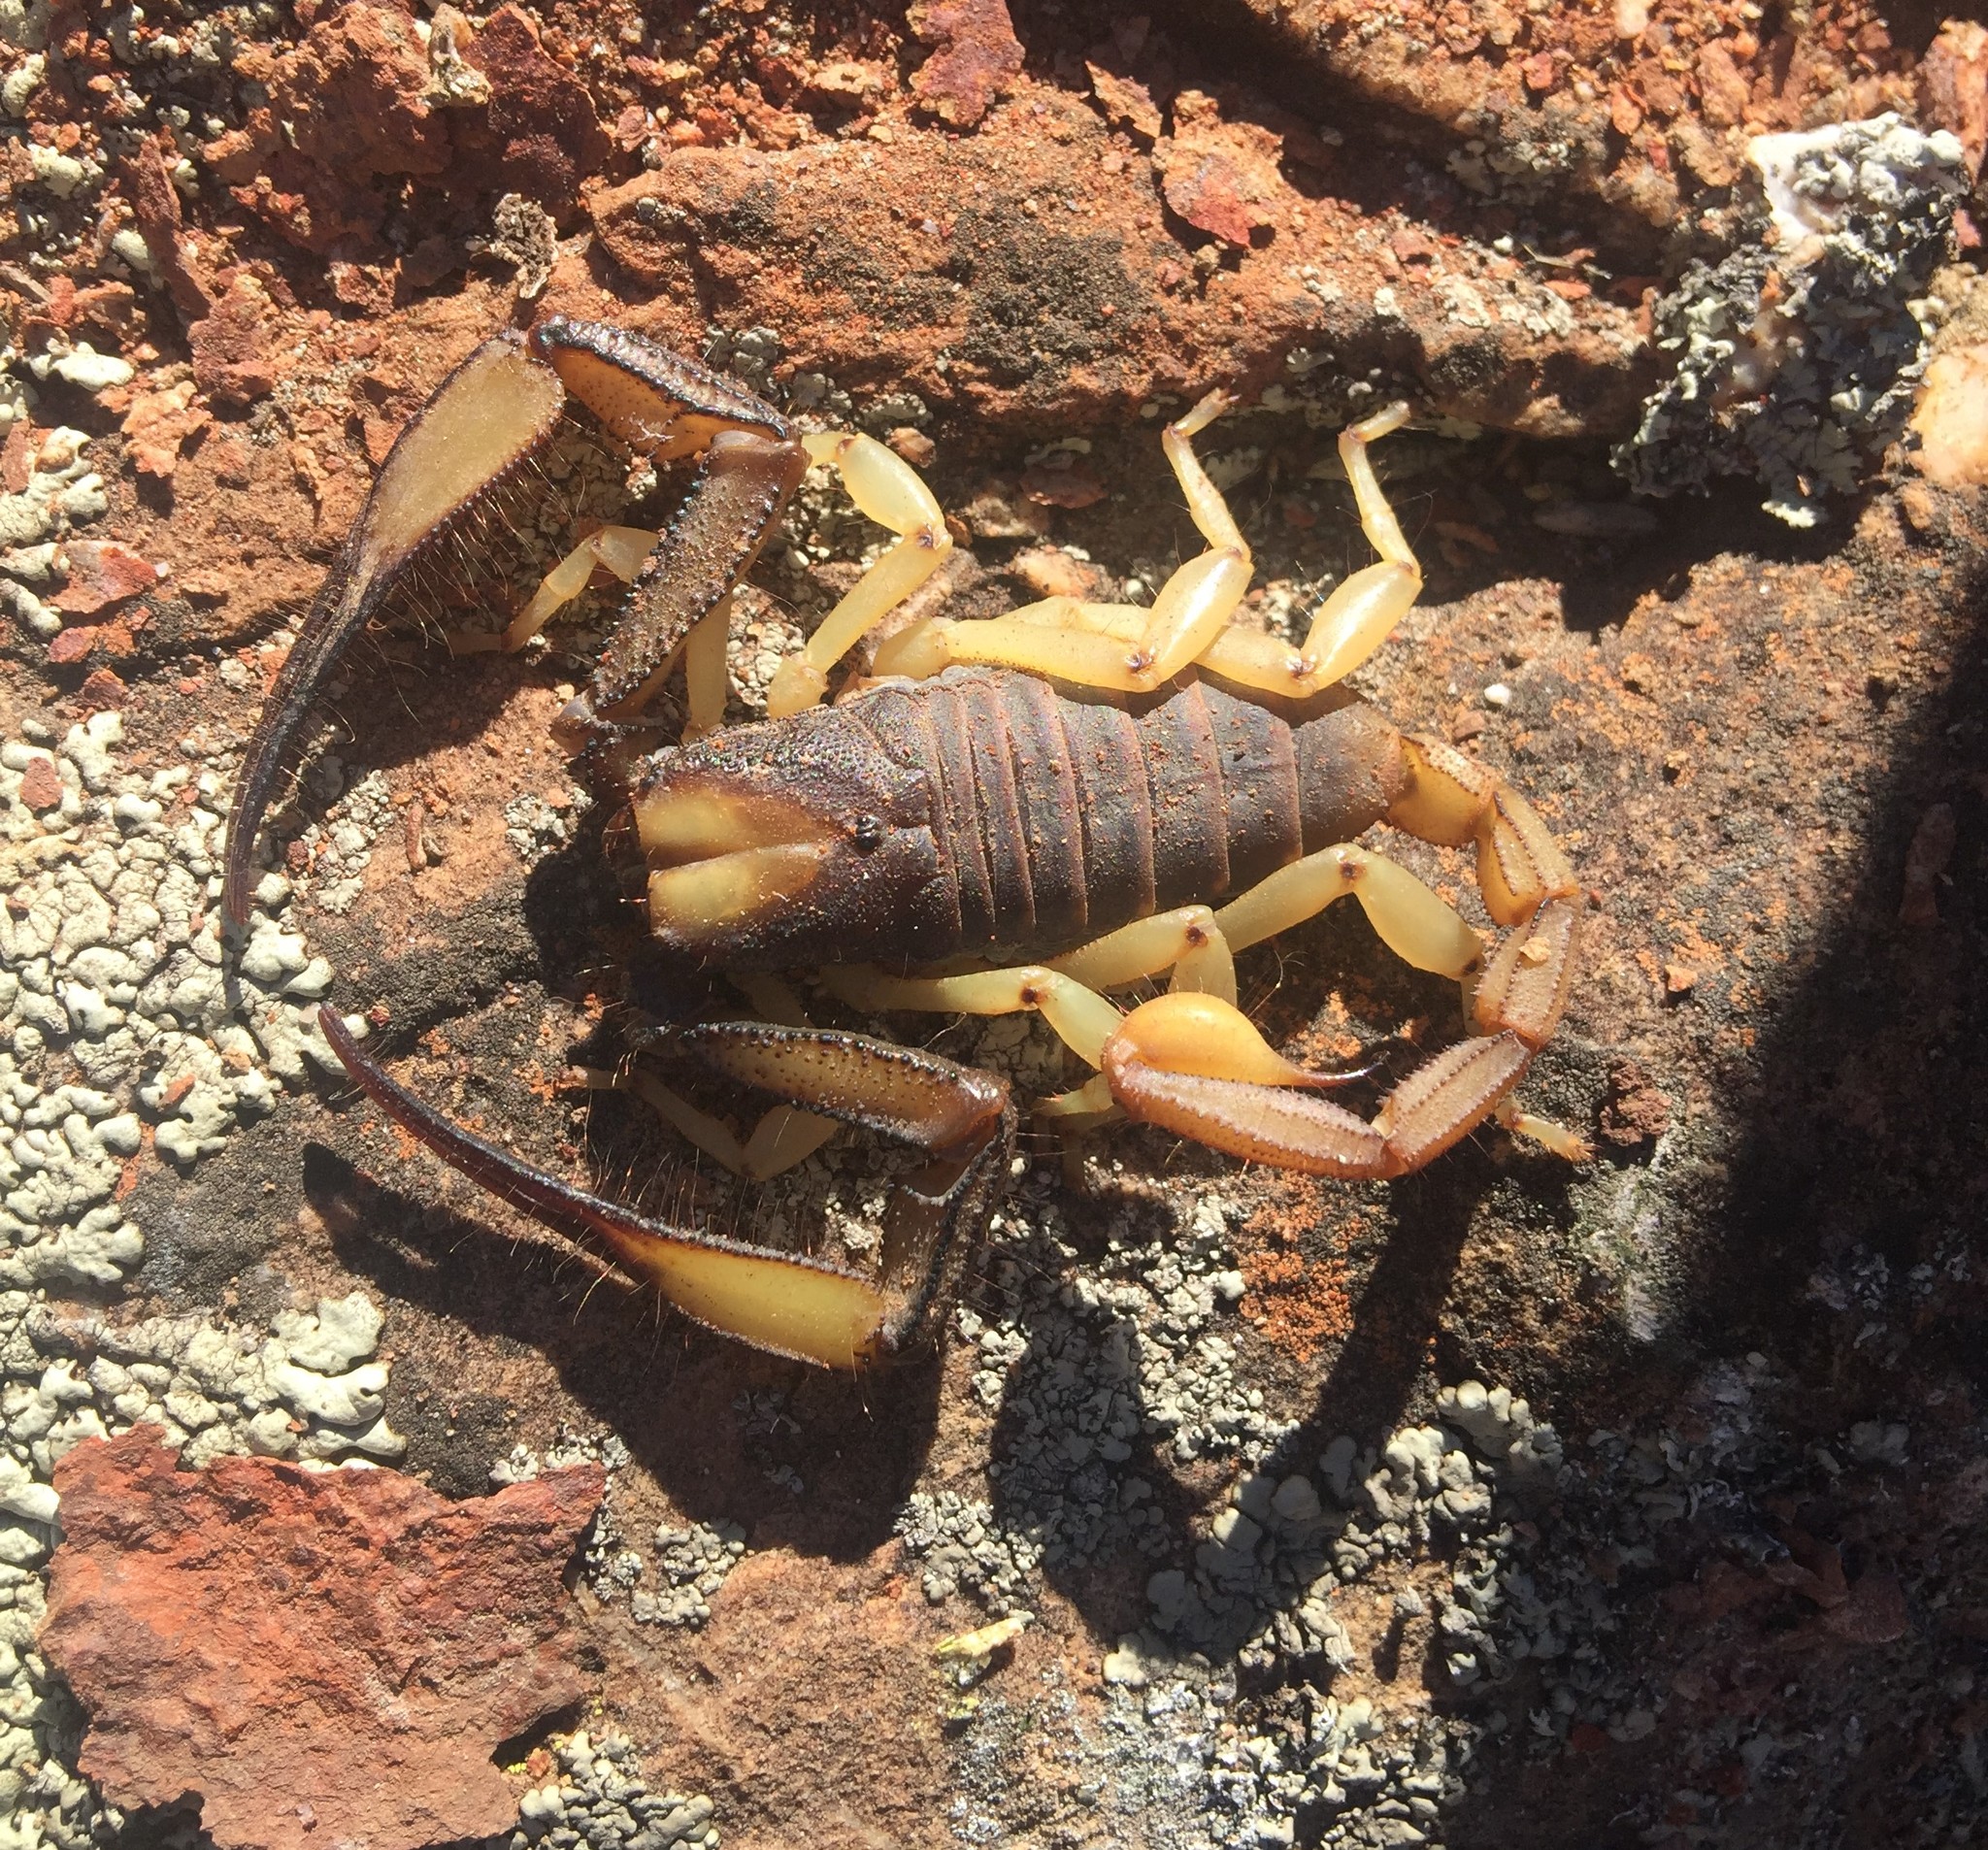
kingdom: Animalia
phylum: Arthropoda
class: Arachnida
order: Scorpiones
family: Scorpionidae
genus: Opistophthalmus
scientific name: Opistophthalmus karrooensis
